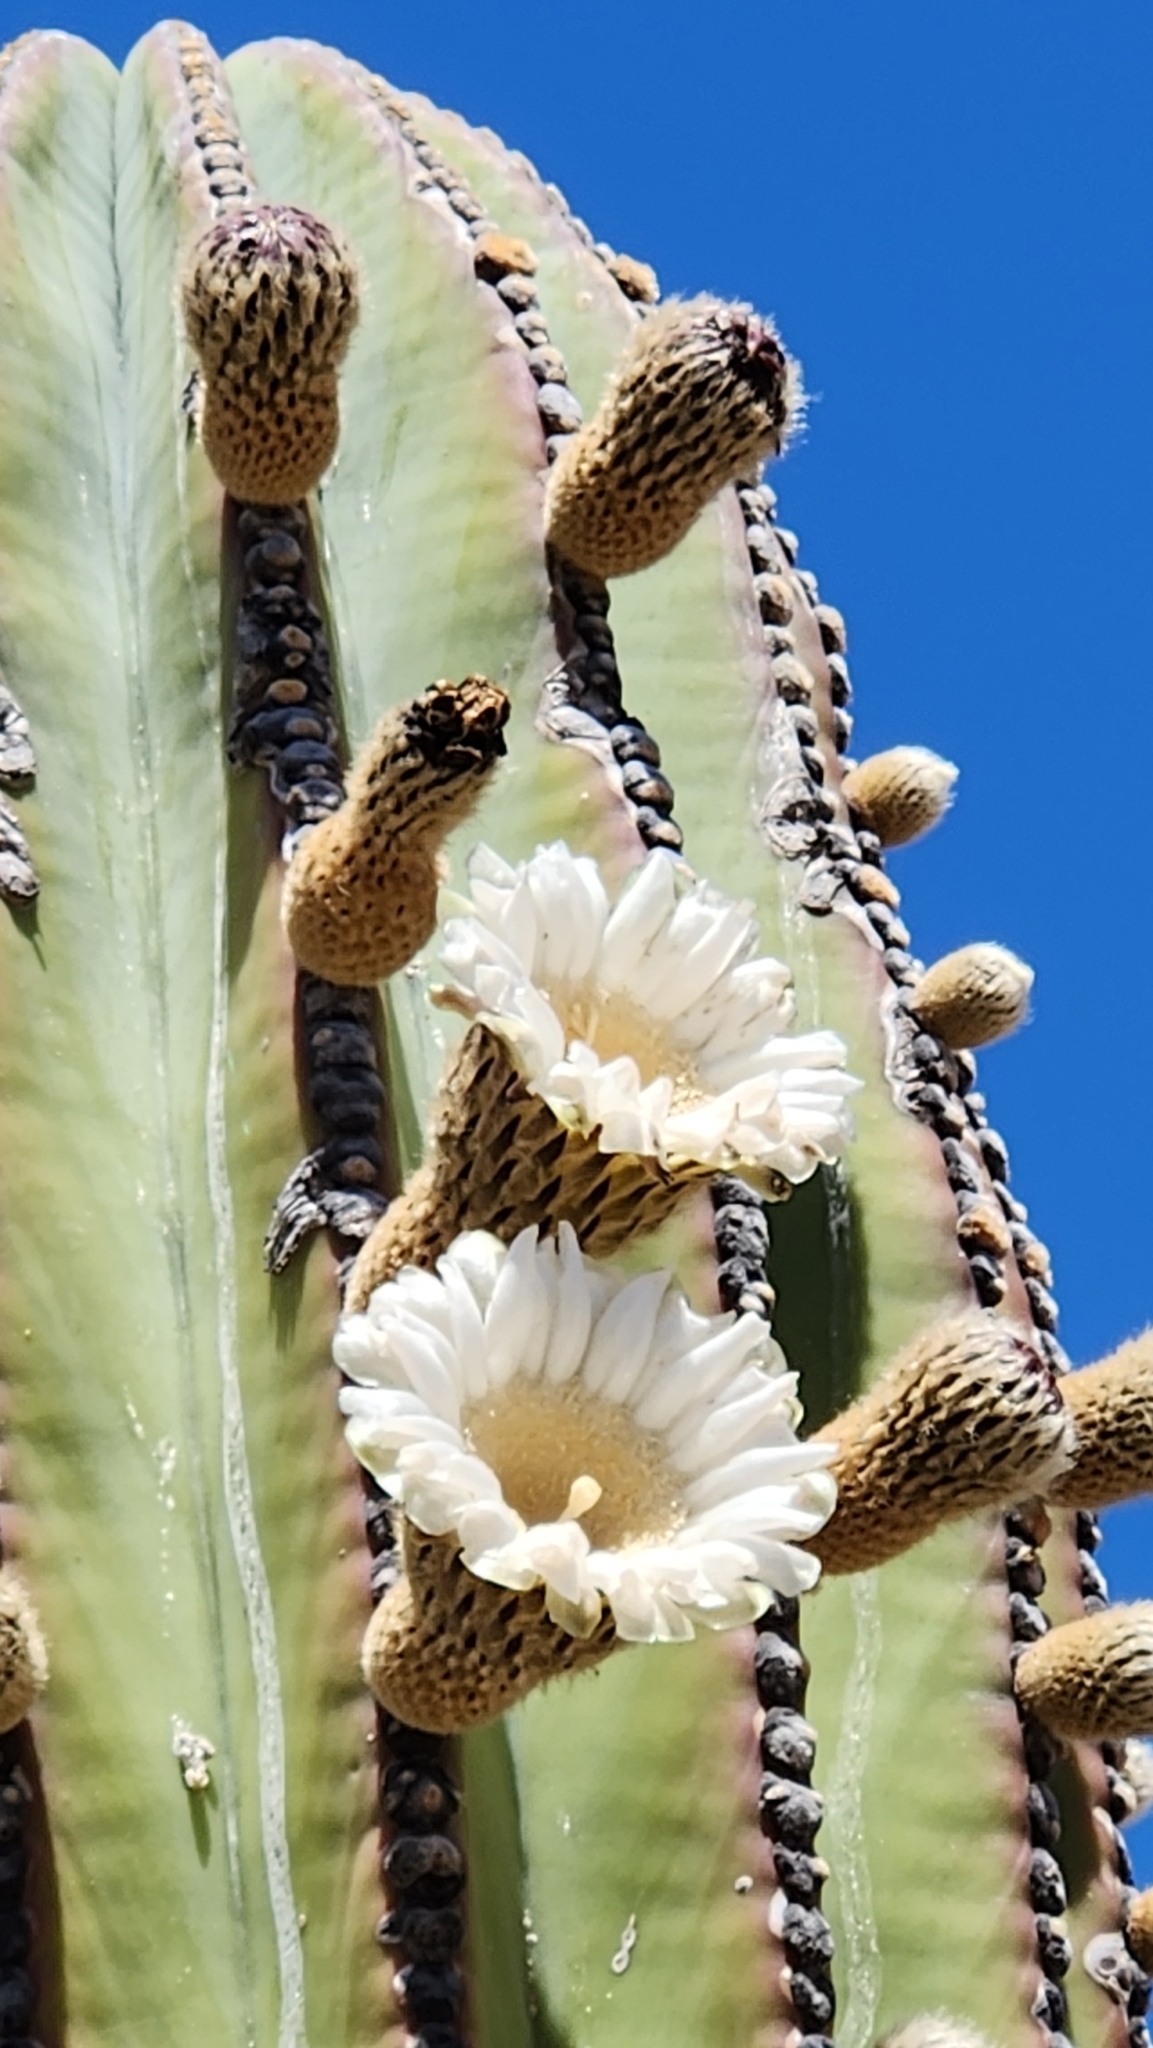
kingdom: Plantae
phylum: Tracheophyta
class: Magnoliopsida
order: Caryophyllales
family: Cactaceae
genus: Pachycereus
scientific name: Pachycereus pringlei
